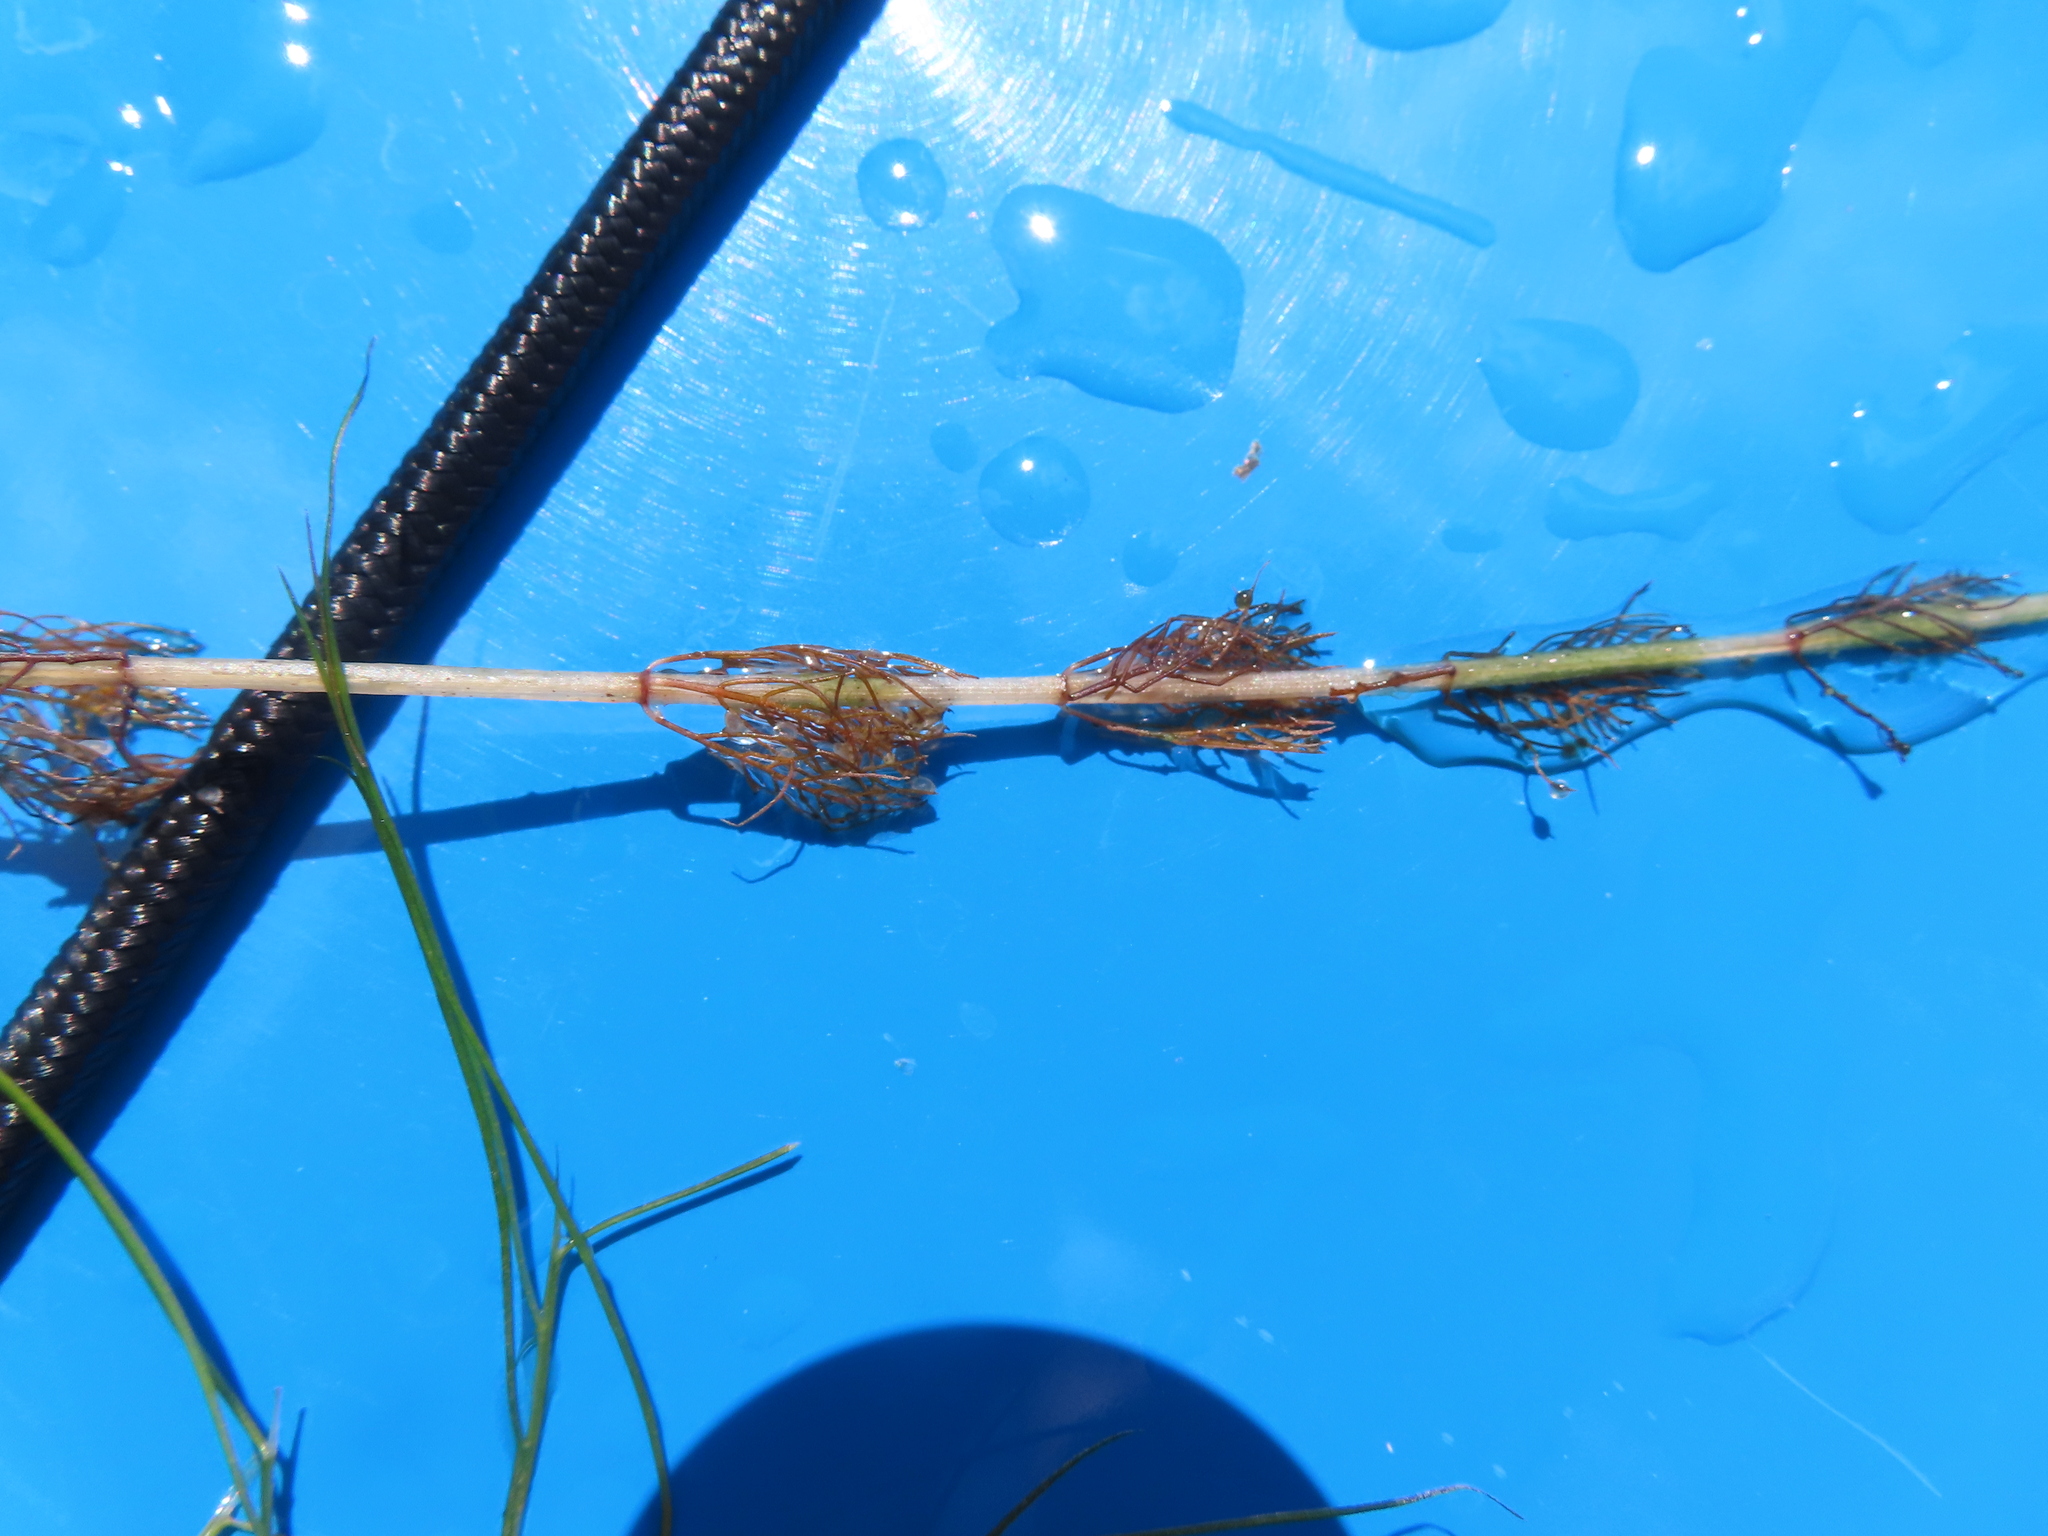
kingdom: Plantae
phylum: Tracheophyta
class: Magnoliopsida
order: Saxifragales
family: Haloragaceae
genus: Myriophyllum
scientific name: Myriophyllum sibiricum
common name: Siberian water-milfoil
